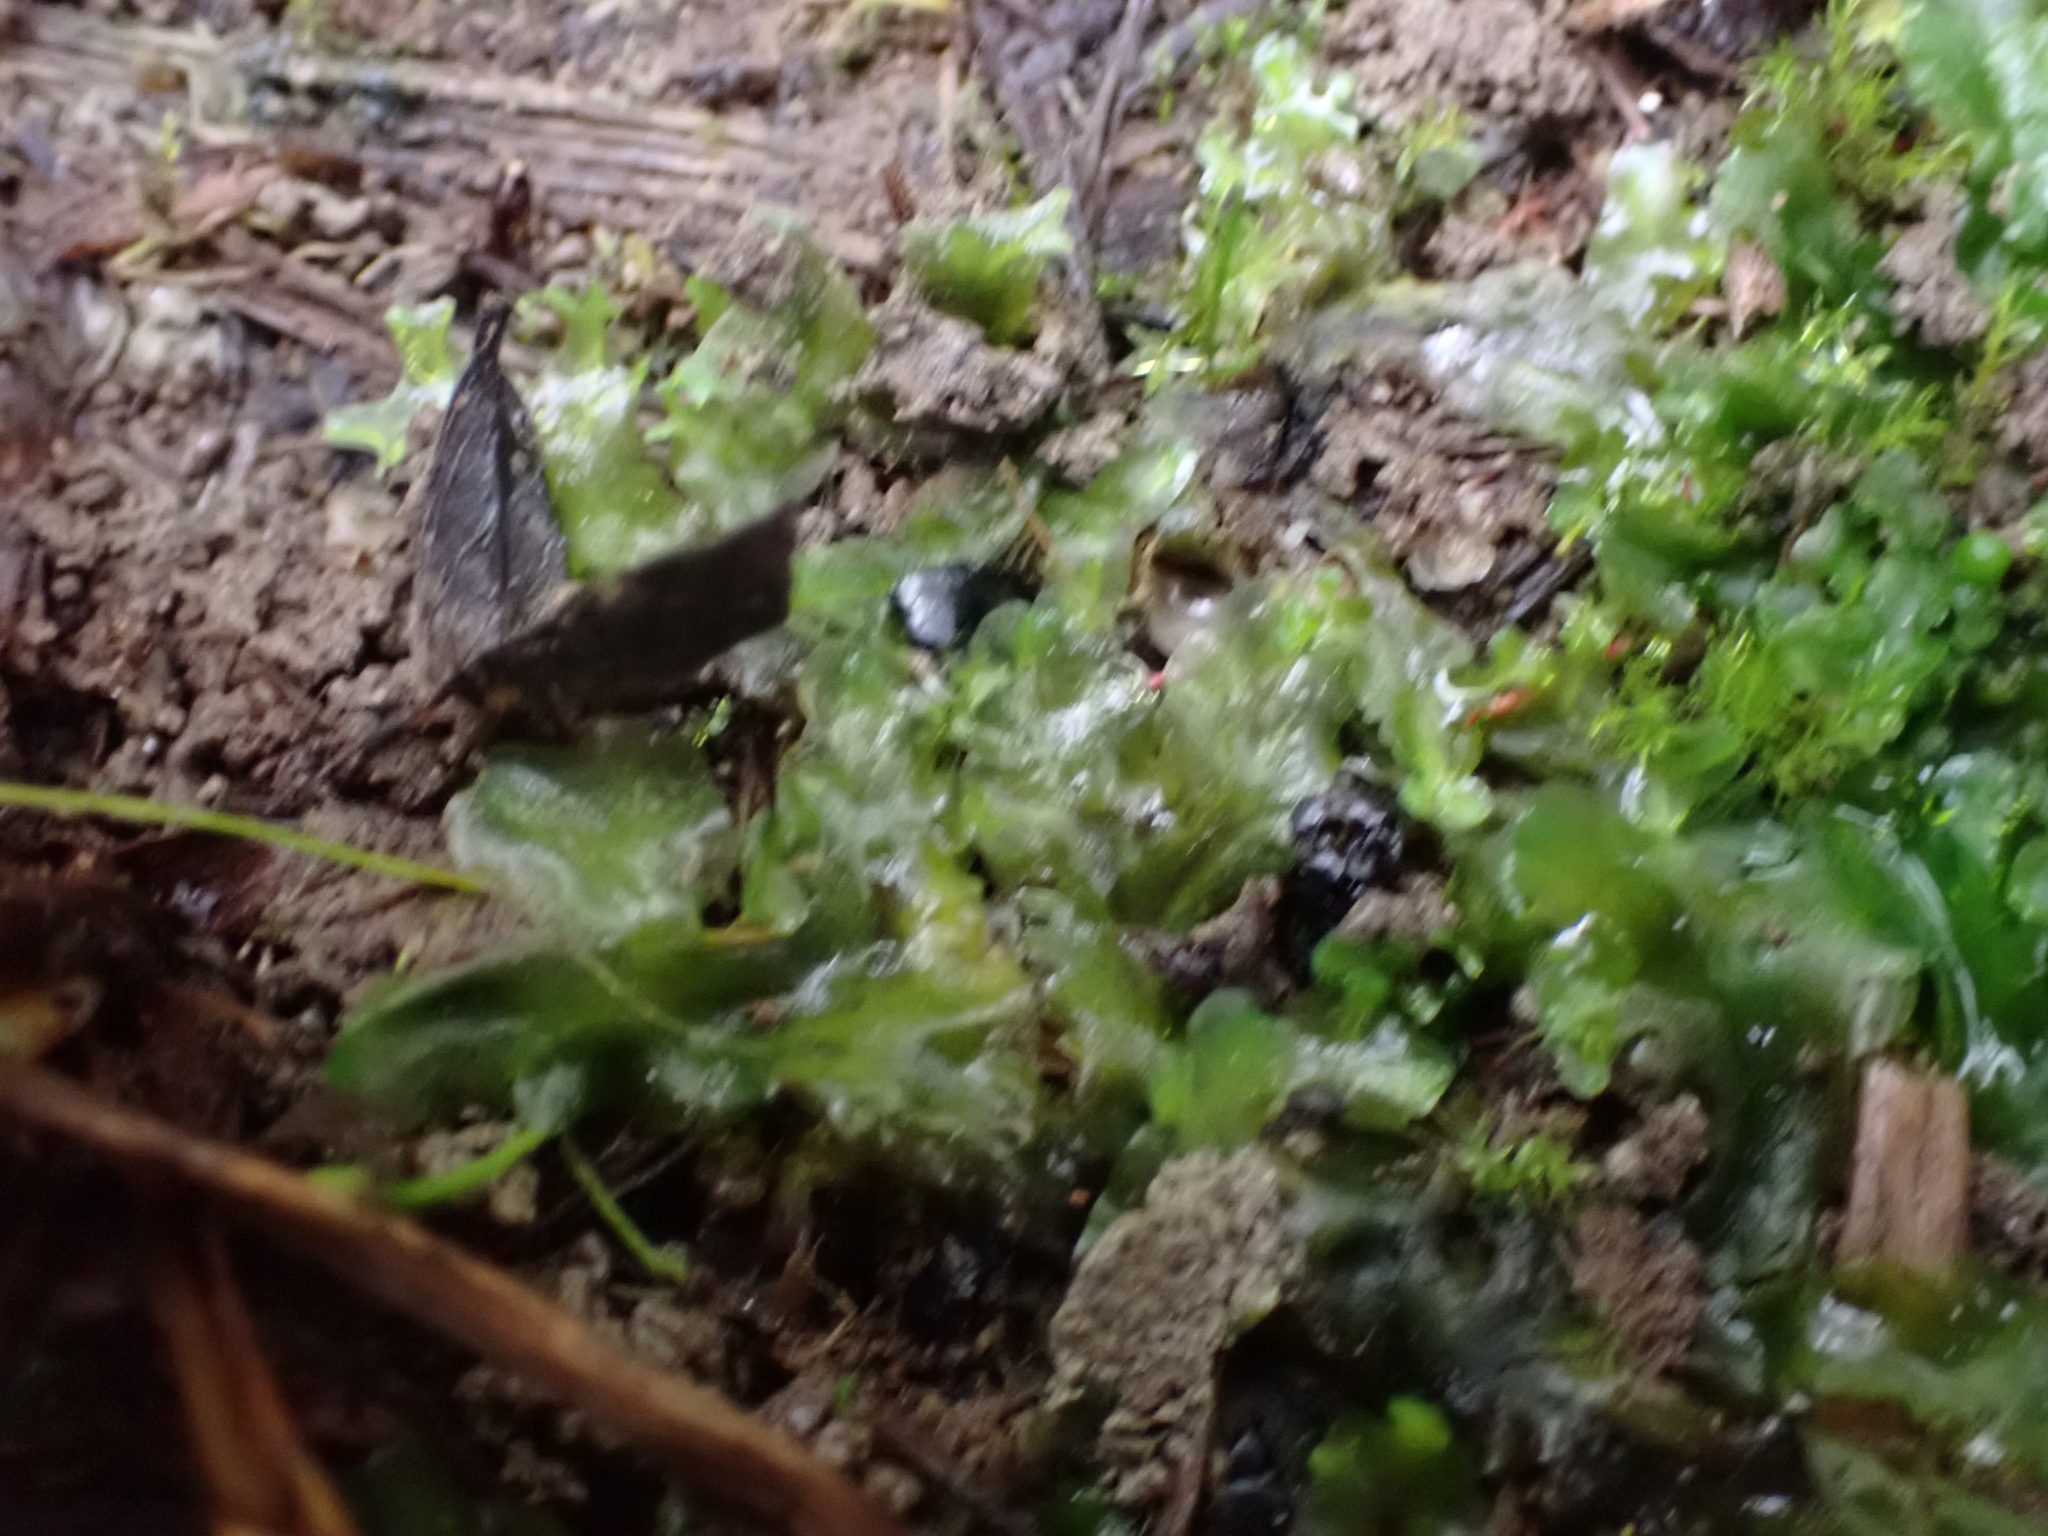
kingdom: Plantae
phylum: Marchantiophyta
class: Jungermanniopsida
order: Pelliales
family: Pelliaceae
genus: Apopellia
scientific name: Apopellia endiviifolia
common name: Endive pellia
